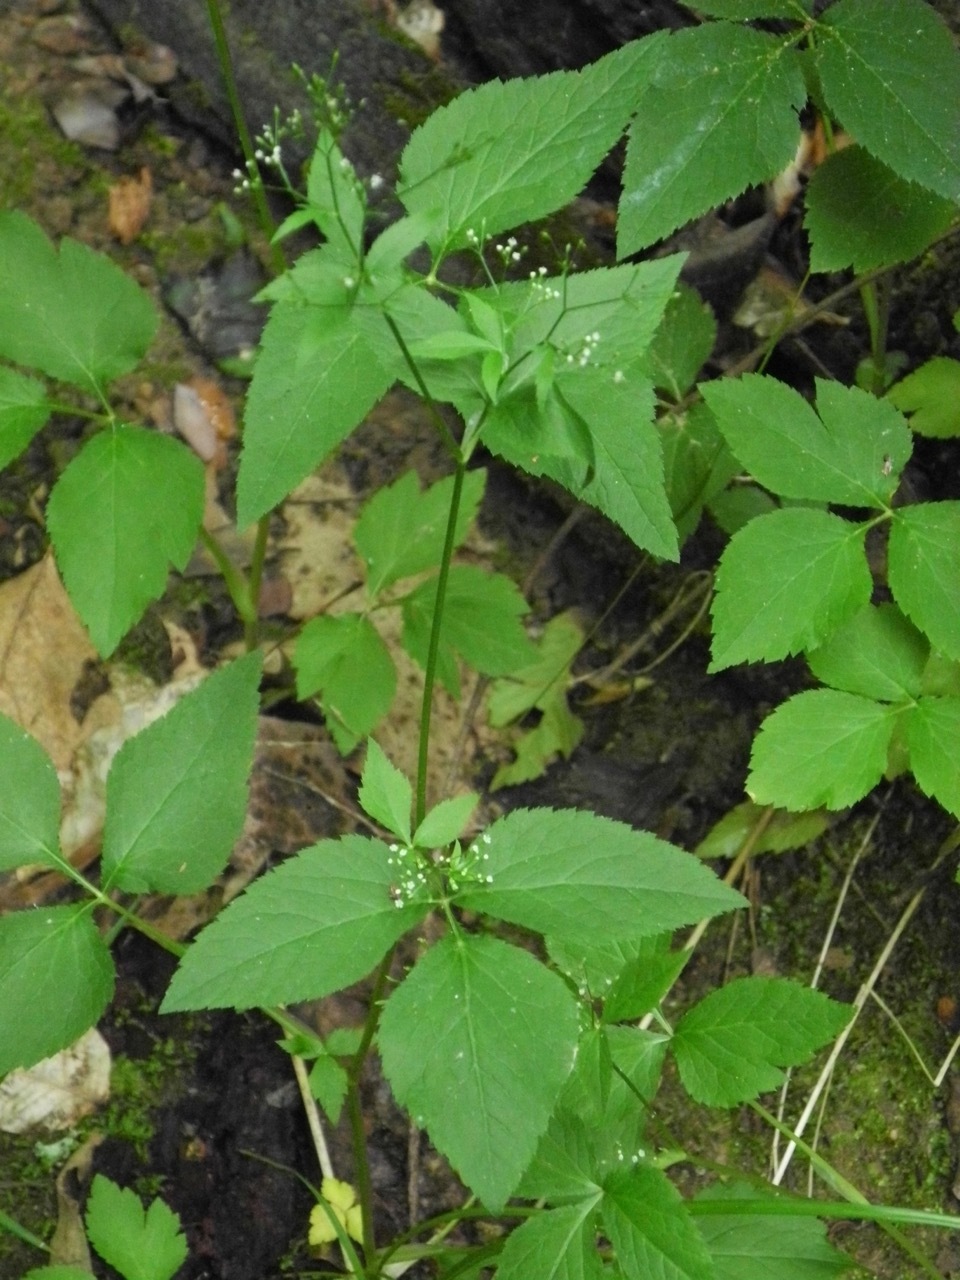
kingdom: Plantae
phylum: Tracheophyta
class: Magnoliopsida
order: Apiales
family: Apiaceae
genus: Cryptotaenia
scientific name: Cryptotaenia canadensis
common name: Honewort
